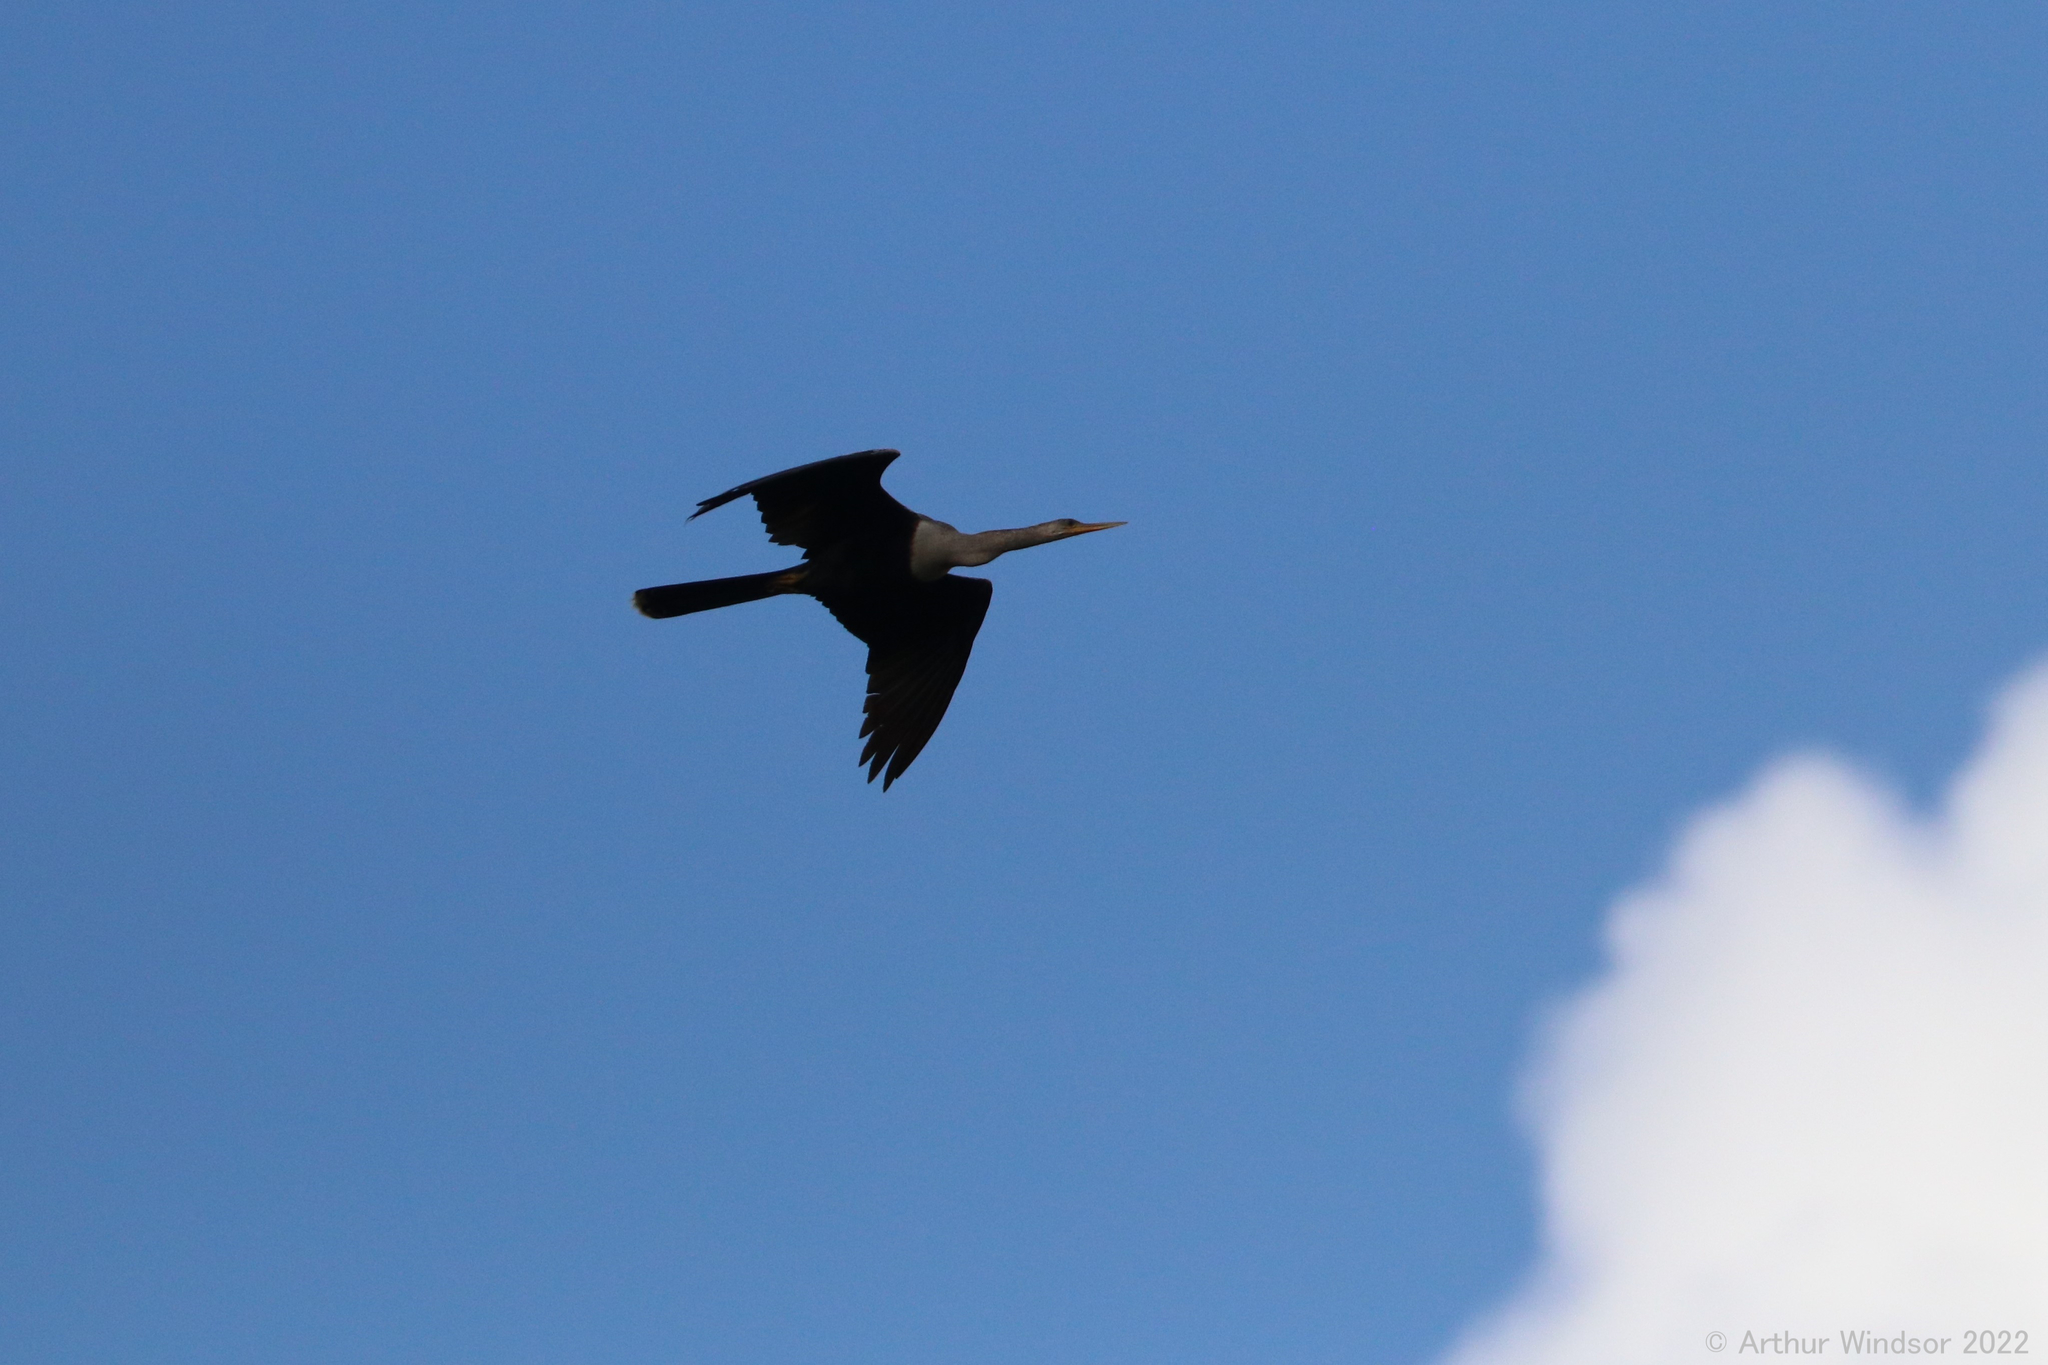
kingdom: Animalia
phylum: Chordata
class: Aves
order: Suliformes
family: Anhingidae
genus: Anhinga
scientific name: Anhinga anhinga
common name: Anhinga
